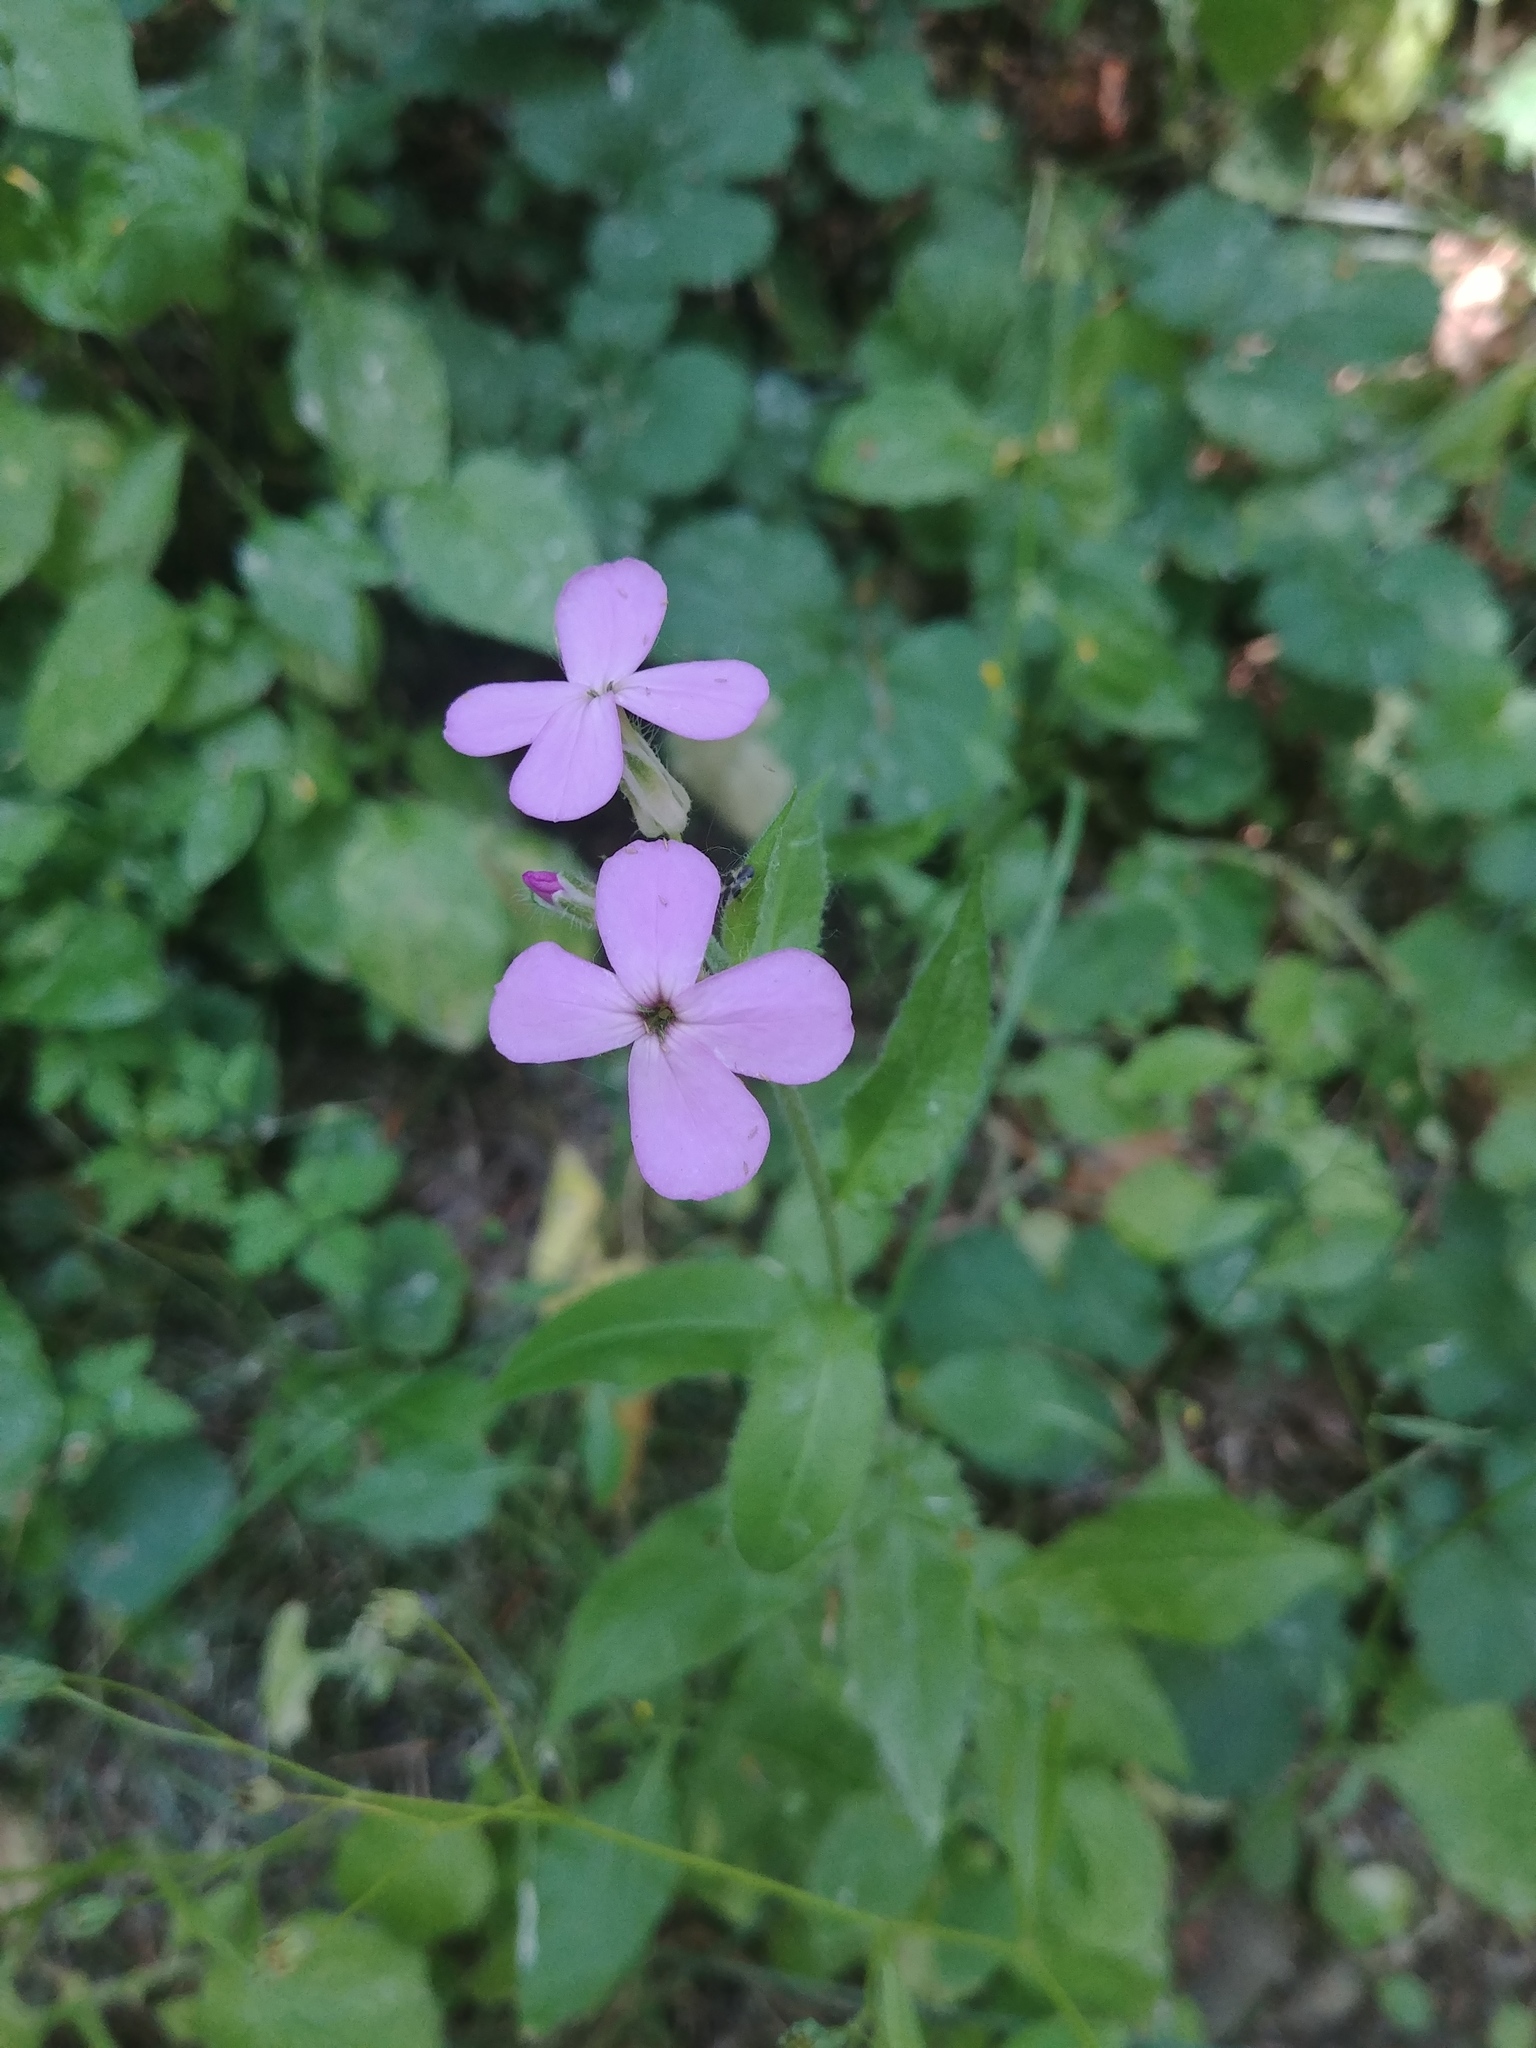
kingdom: Plantae
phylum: Tracheophyta
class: Magnoliopsida
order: Brassicales
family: Brassicaceae
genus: Hesperis
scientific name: Hesperis matronalis
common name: Dame's-violet
